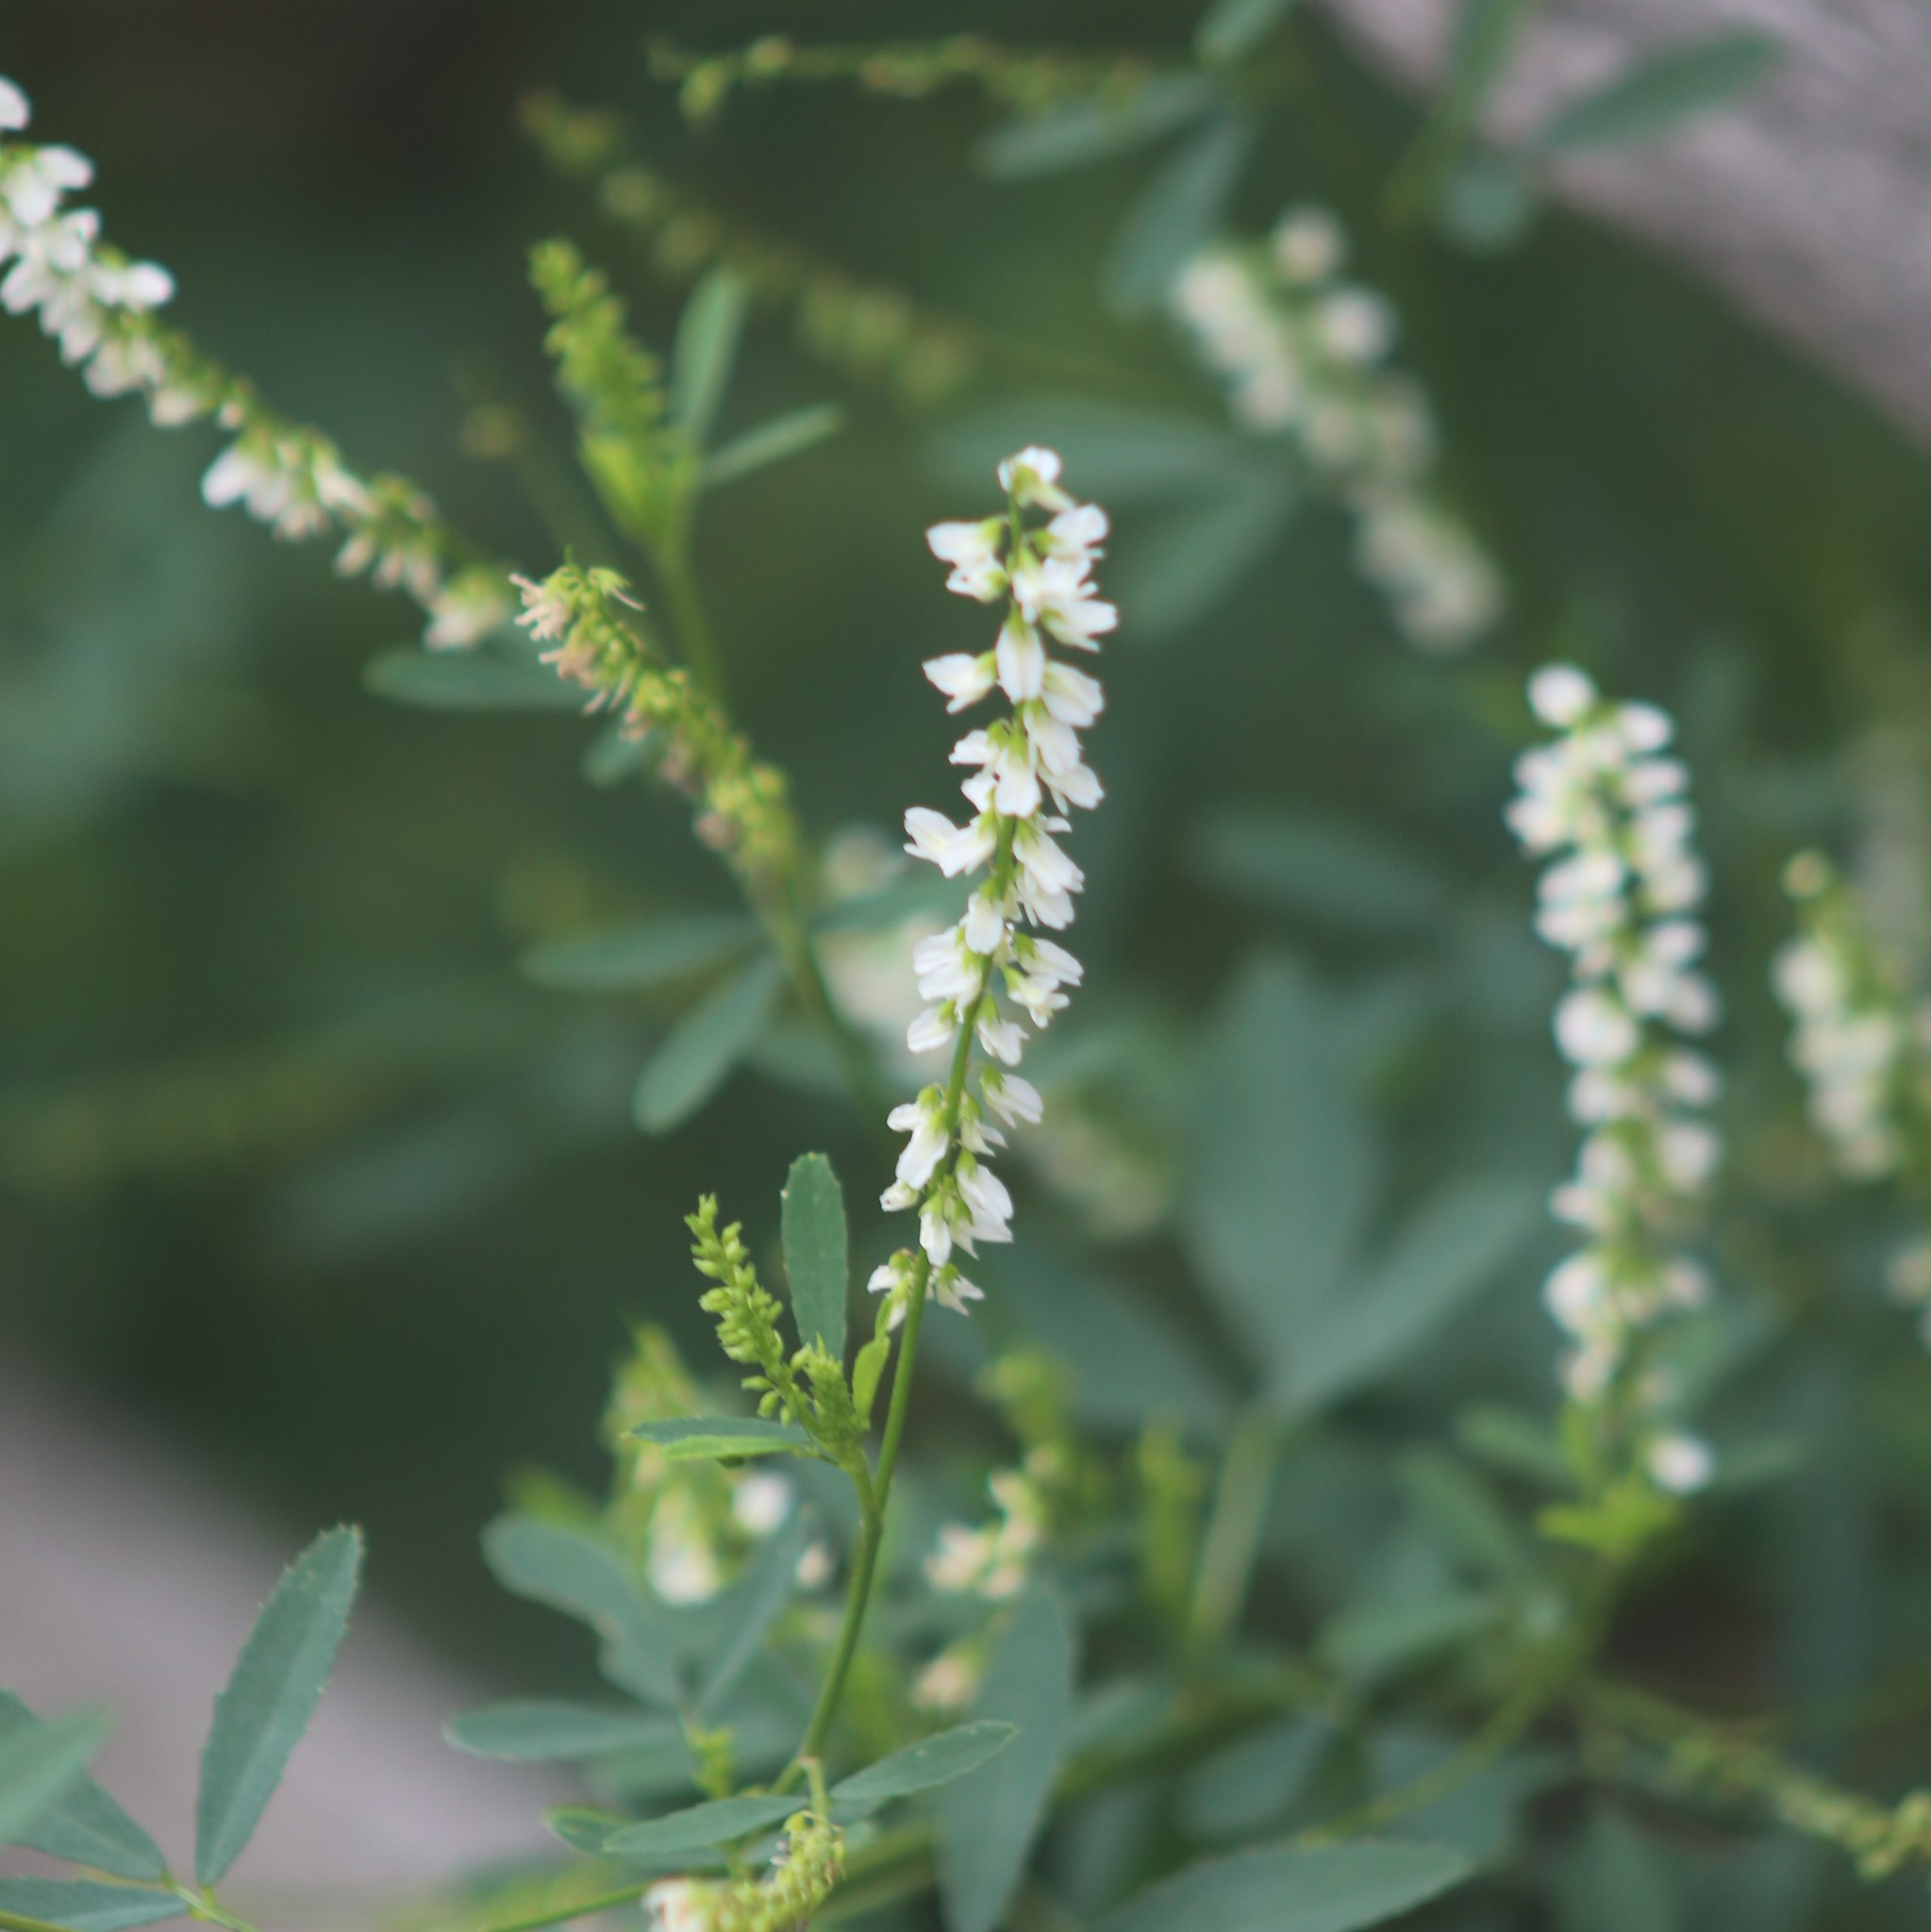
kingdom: Plantae
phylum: Tracheophyta
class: Magnoliopsida
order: Fabales
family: Fabaceae
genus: Melilotus
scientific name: Melilotus albus
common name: White melilot
